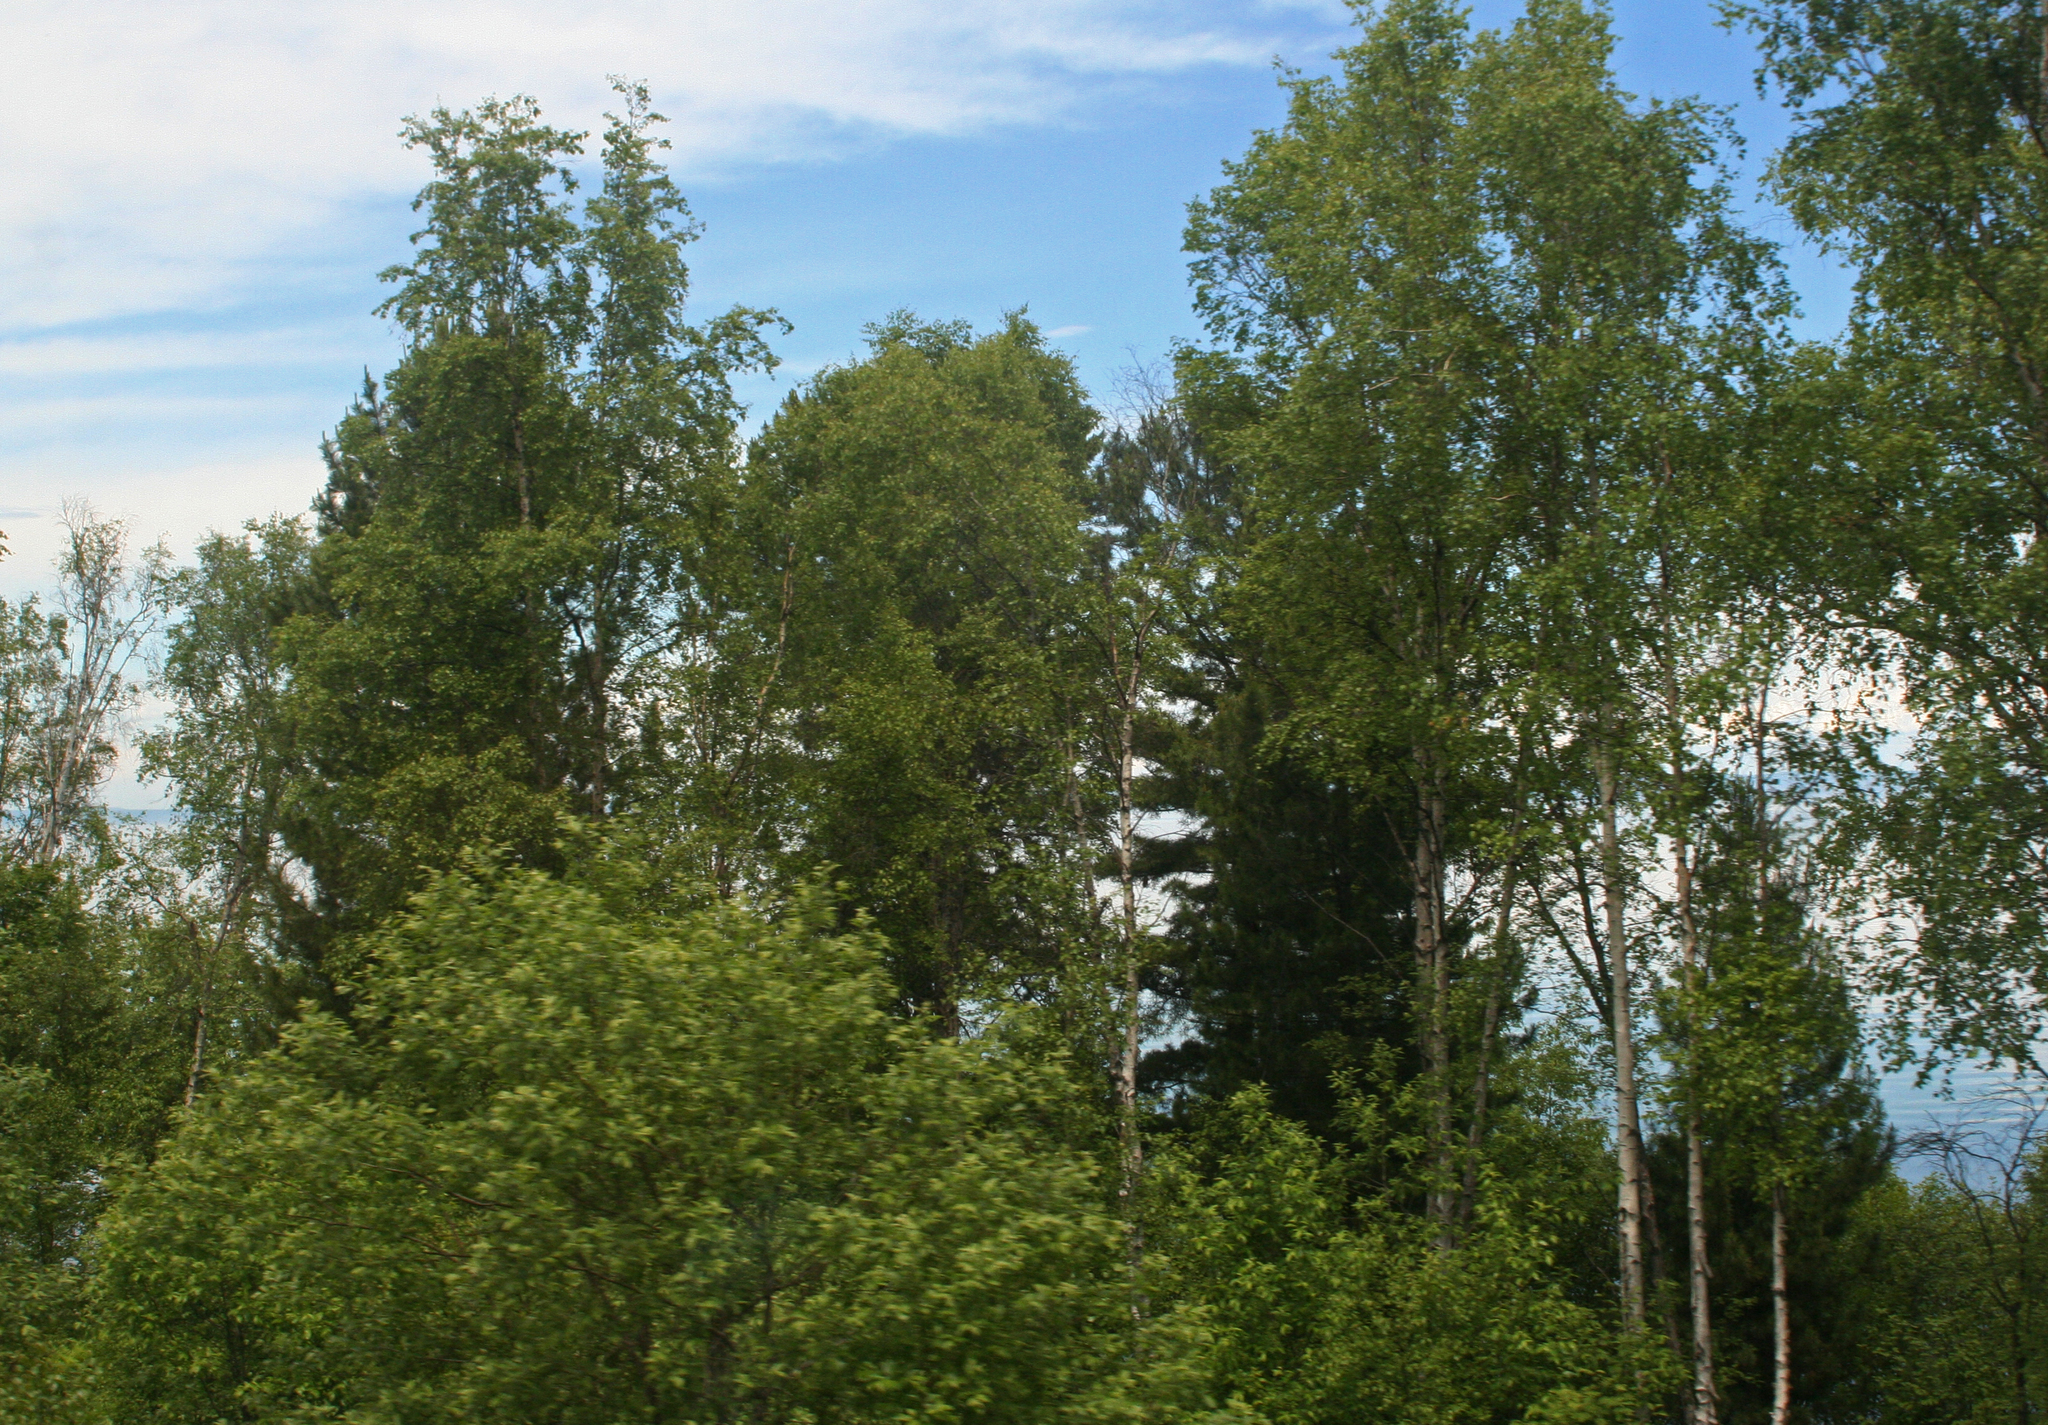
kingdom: Plantae
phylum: Tracheophyta
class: Magnoliopsida
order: Malpighiales
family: Salicaceae
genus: Populus
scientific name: Populus tremula
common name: European aspen
